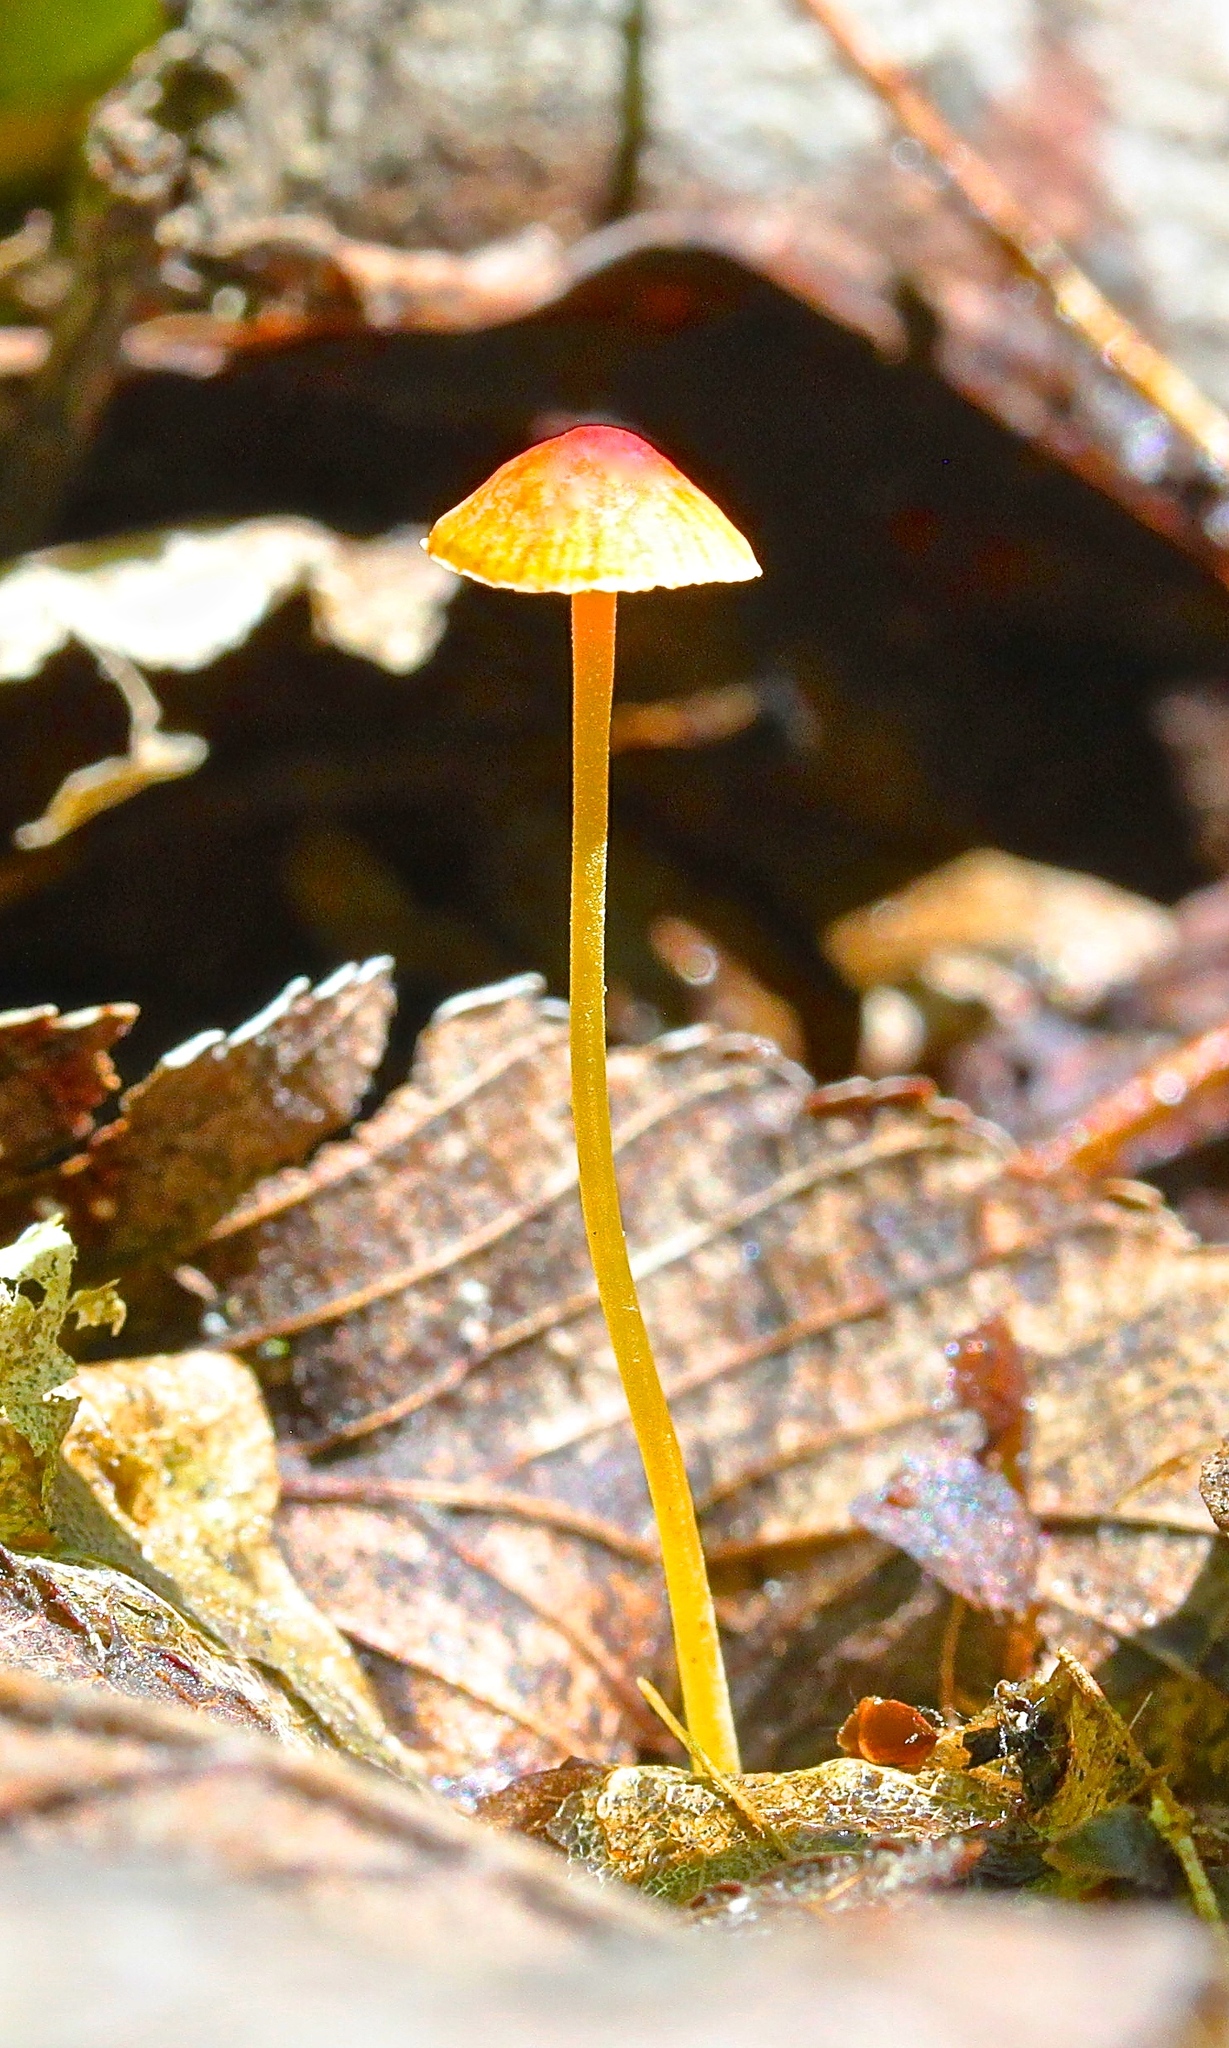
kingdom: Fungi
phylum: Basidiomycota
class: Agaricomycetes
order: Agaricales
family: Mycenaceae
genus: Mycena
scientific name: Mycena acicula
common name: Orange bonnet
